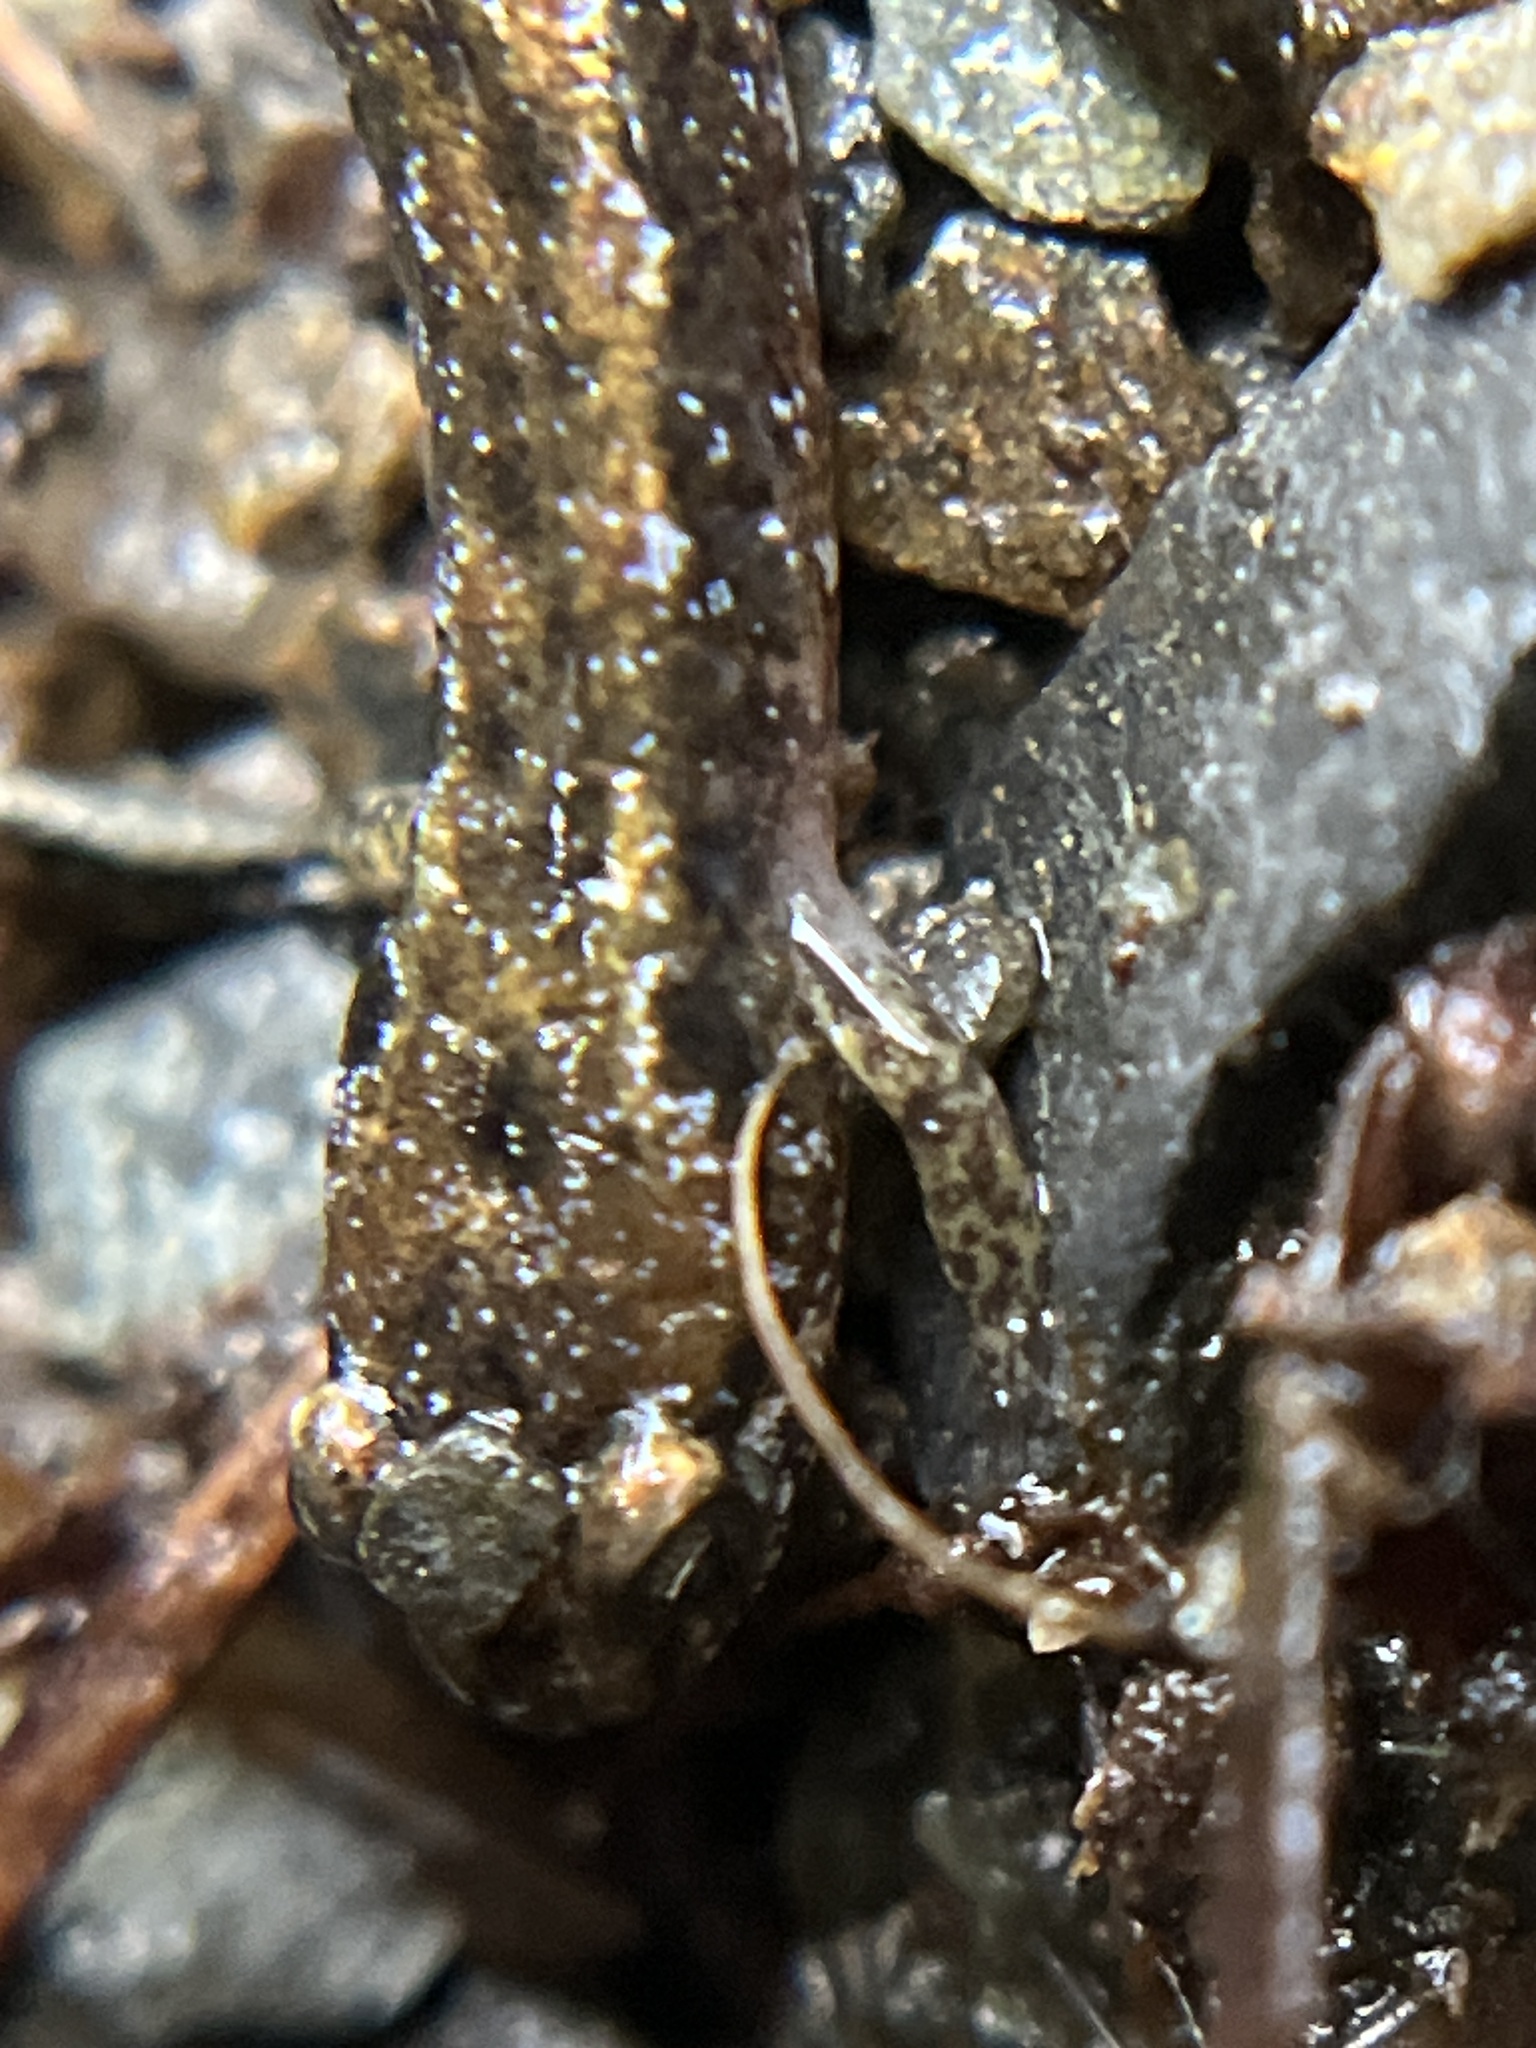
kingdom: Animalia
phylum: Chordata
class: Amphibia
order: Caudata
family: Plethodontidae
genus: Desmognathus
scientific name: Desmognathus fuscus
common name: Northern dusky salamander
